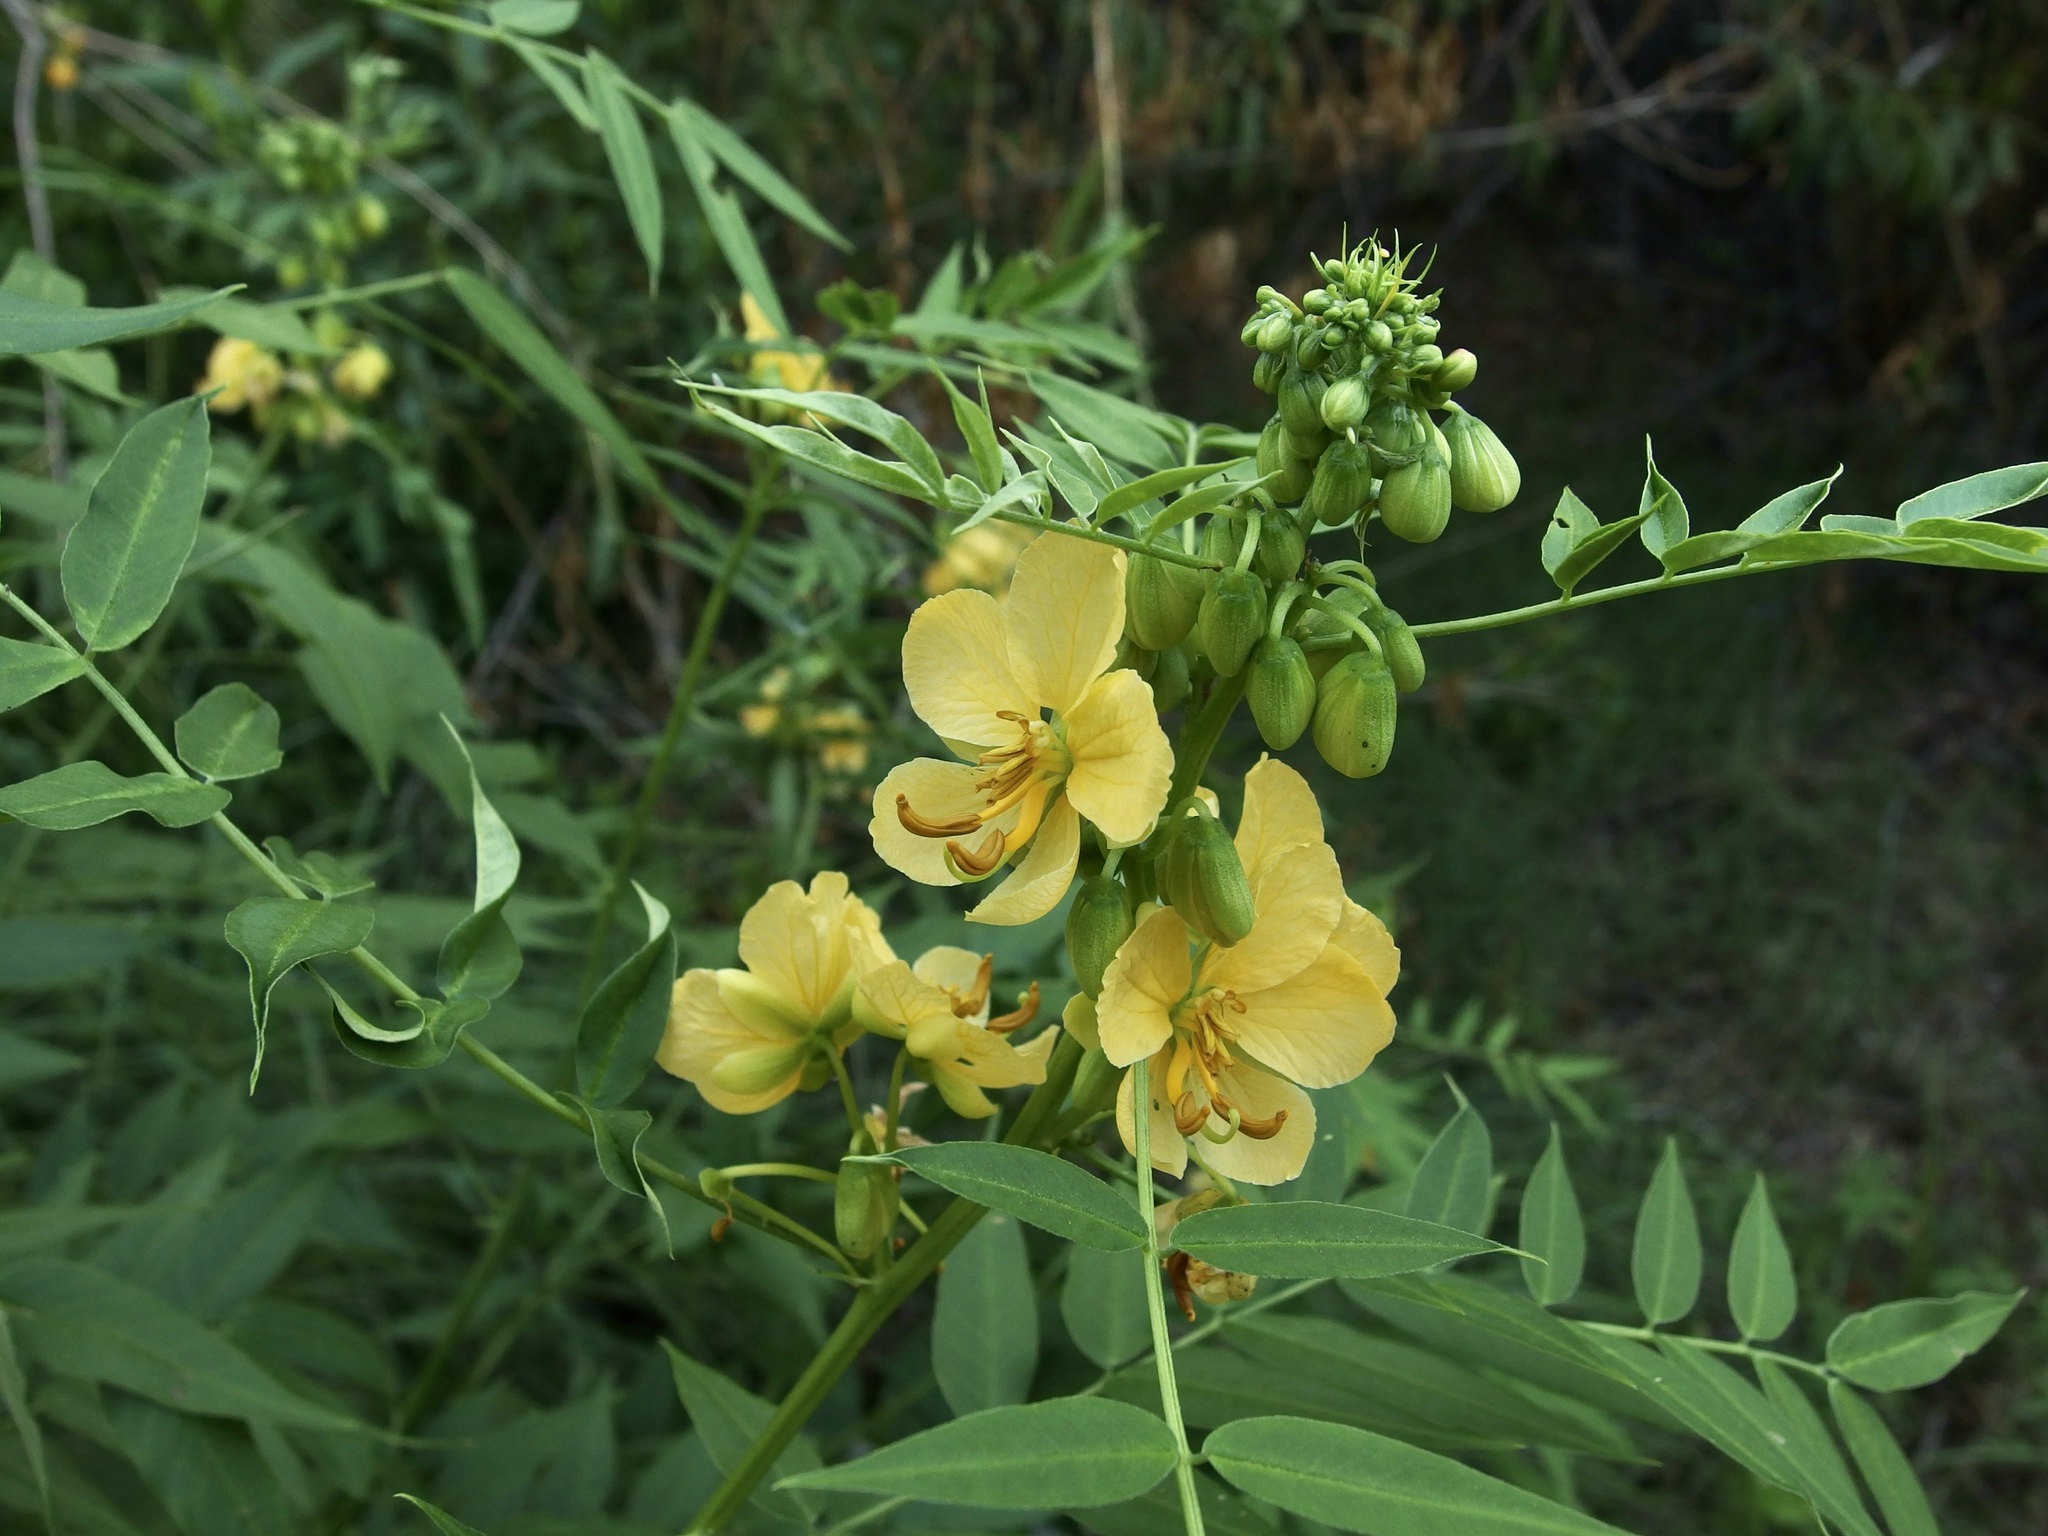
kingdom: Plantae
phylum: Tracheophyta
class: Magnoliopsida
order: Fabales
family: Fabaceae
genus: Senna
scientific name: Senna hirsuta
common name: Woolly senna
